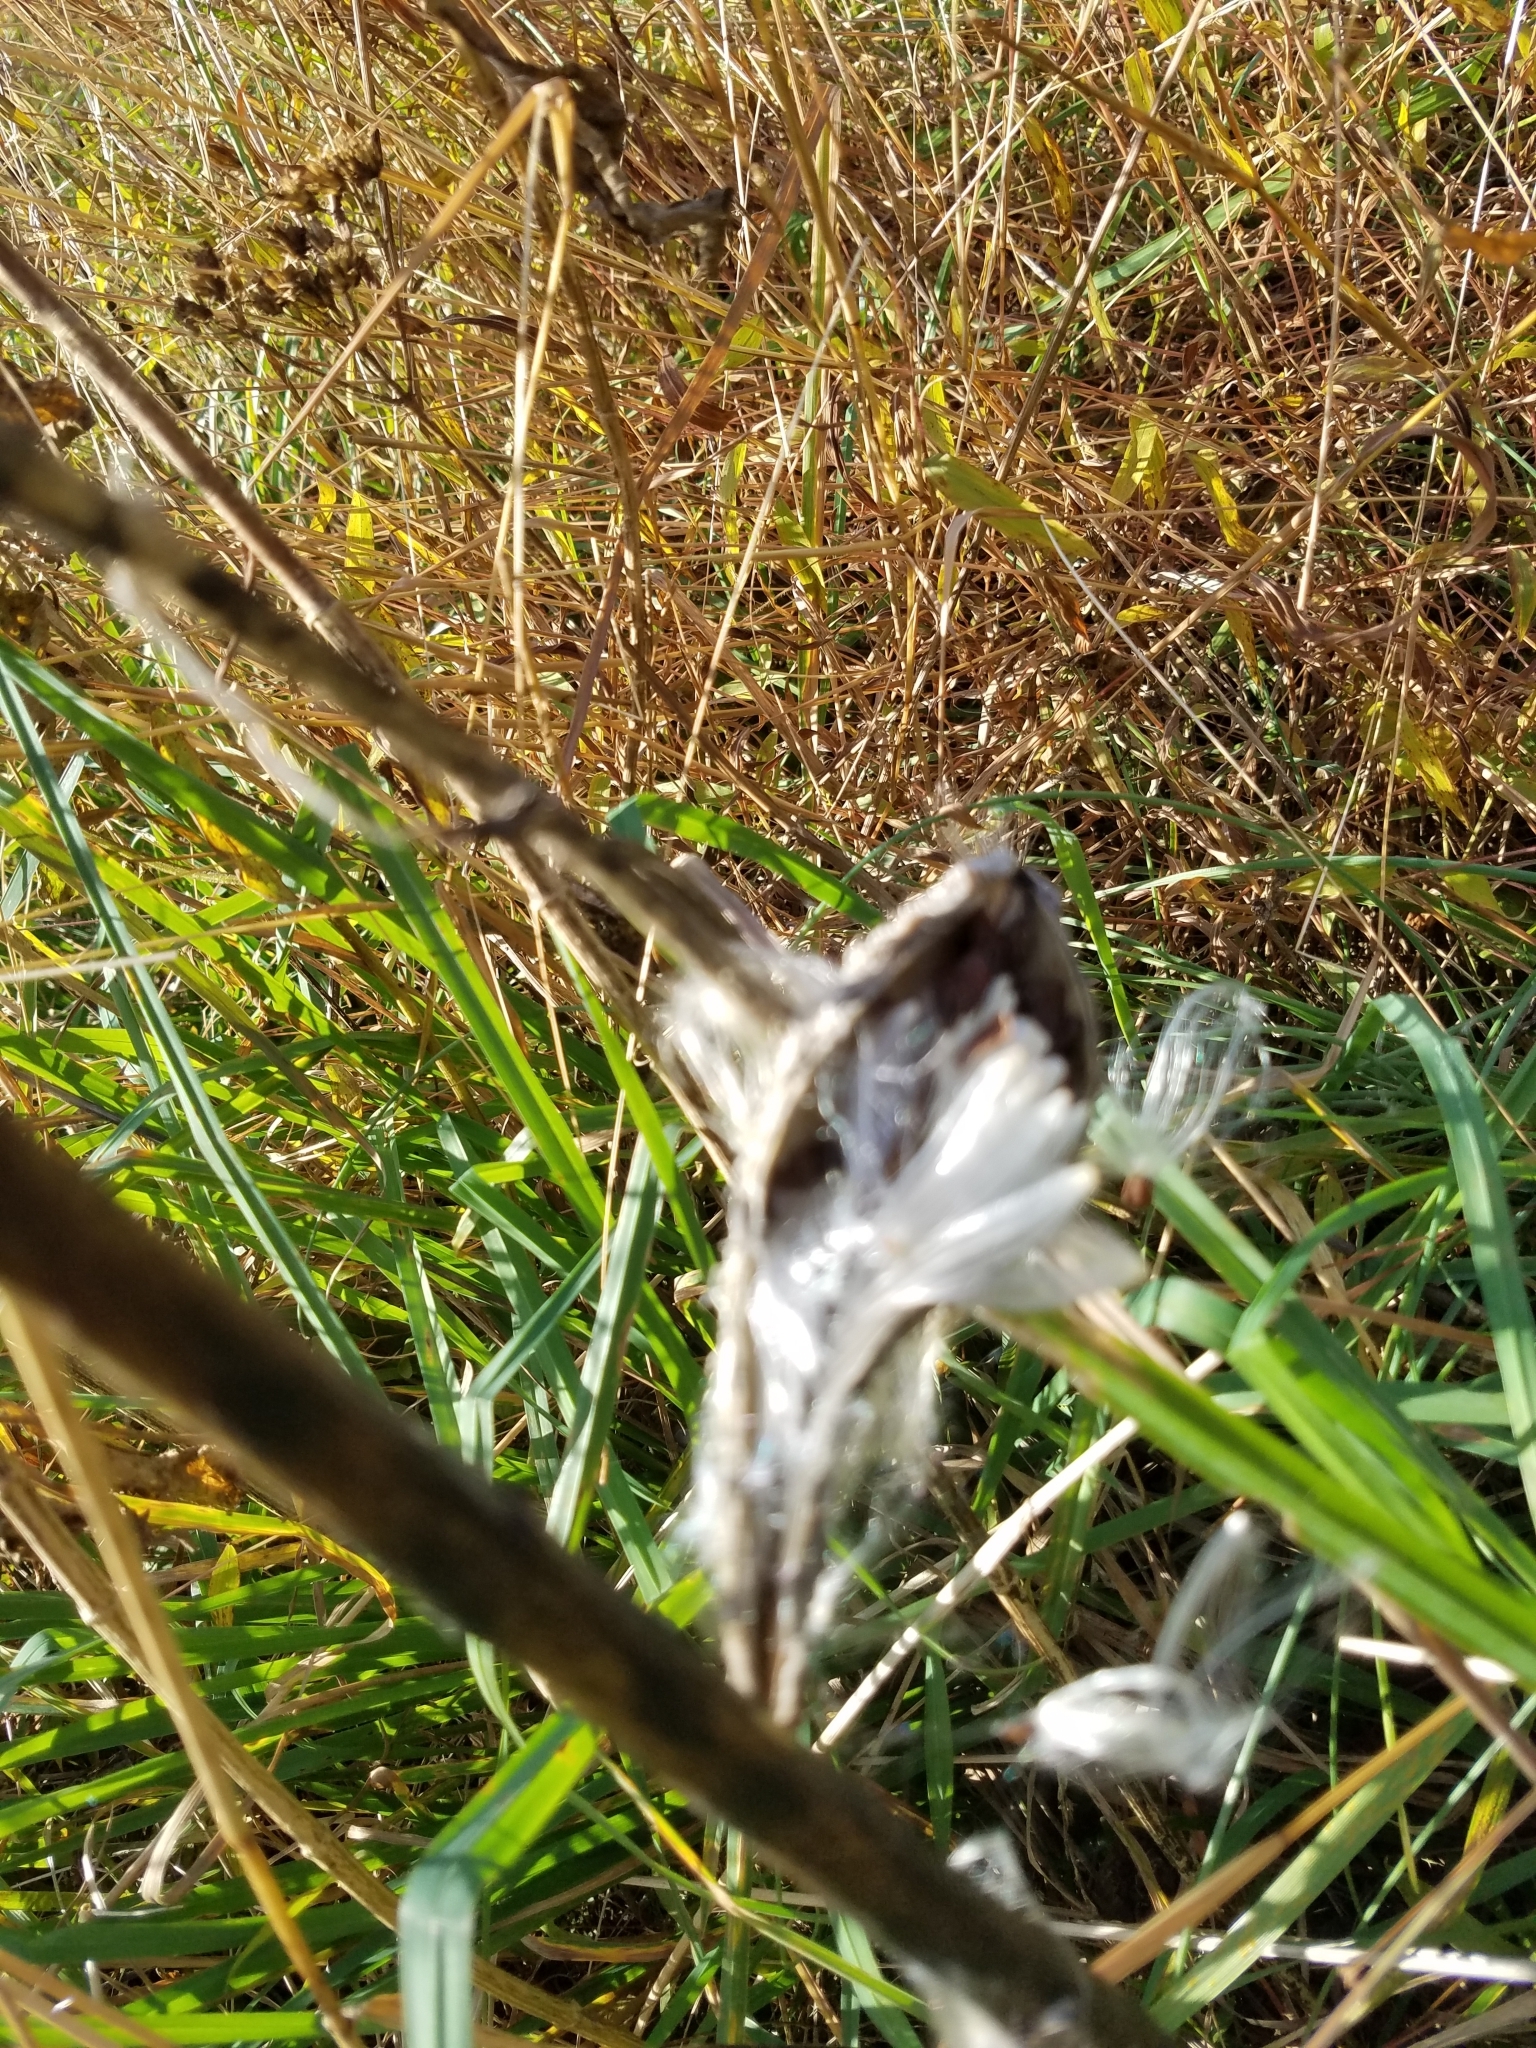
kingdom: Plantae
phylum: Tracheophyta
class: Magnoliopsida
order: Gentianales
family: Apocynaceae
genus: Asclepias
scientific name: Asclepias syriaca
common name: Common milkweed
